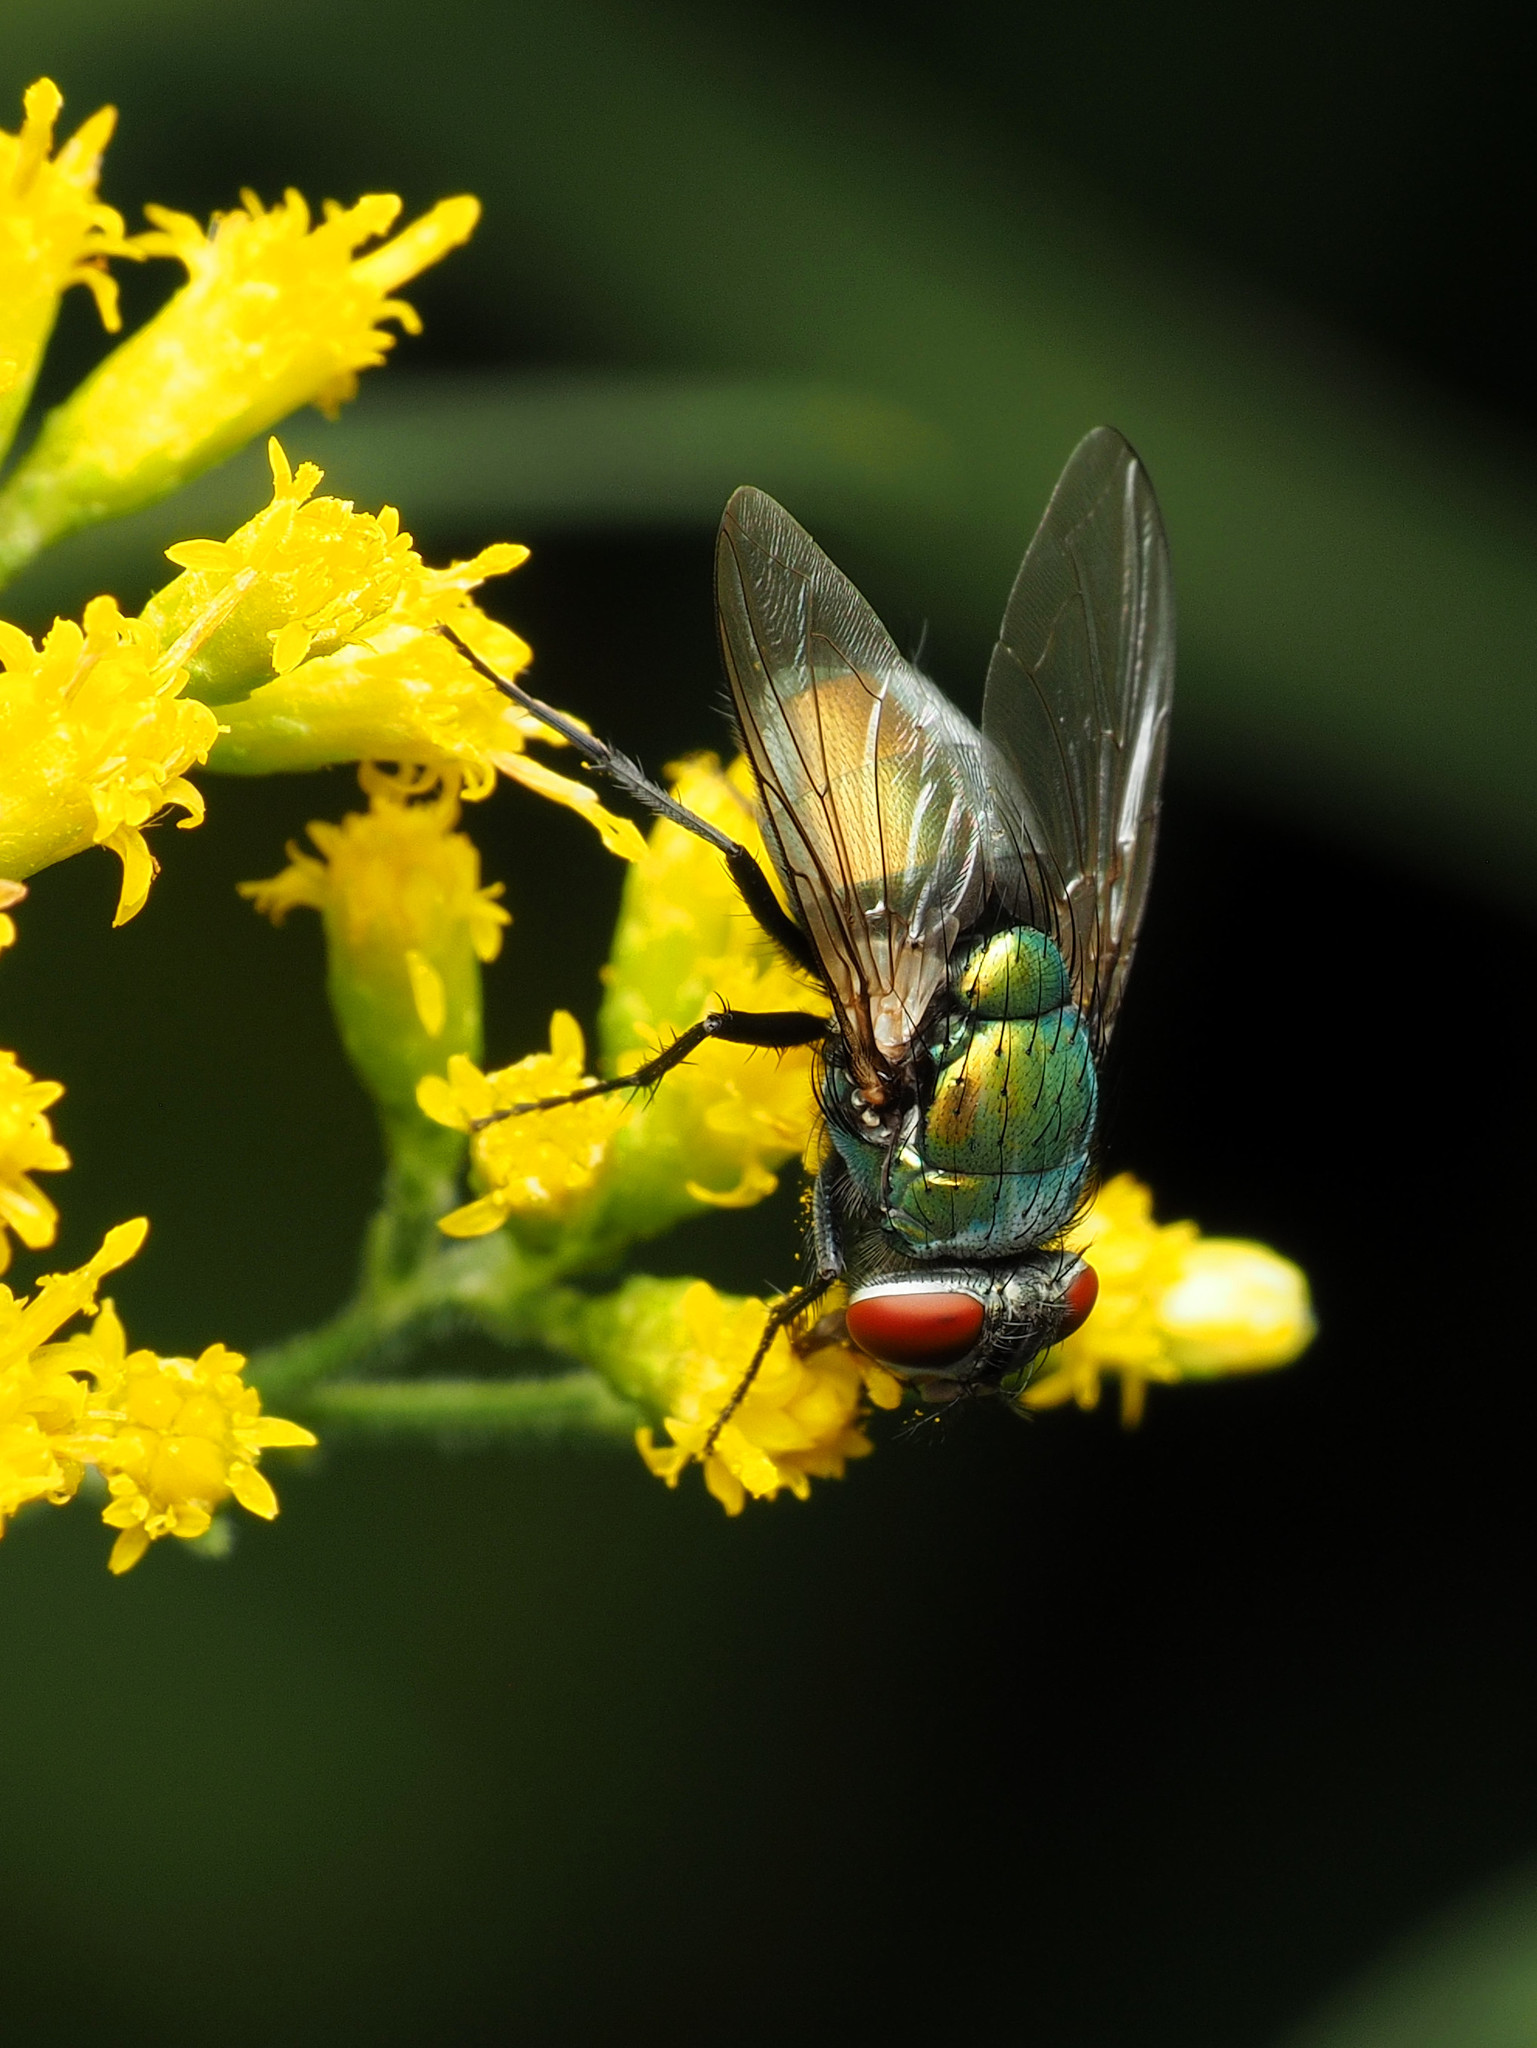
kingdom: Animalia
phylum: Arthropoda
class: Insecta
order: Diptera
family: Calliphoridae
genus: Lucilia
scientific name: Lucilia sericata
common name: Blow fly
